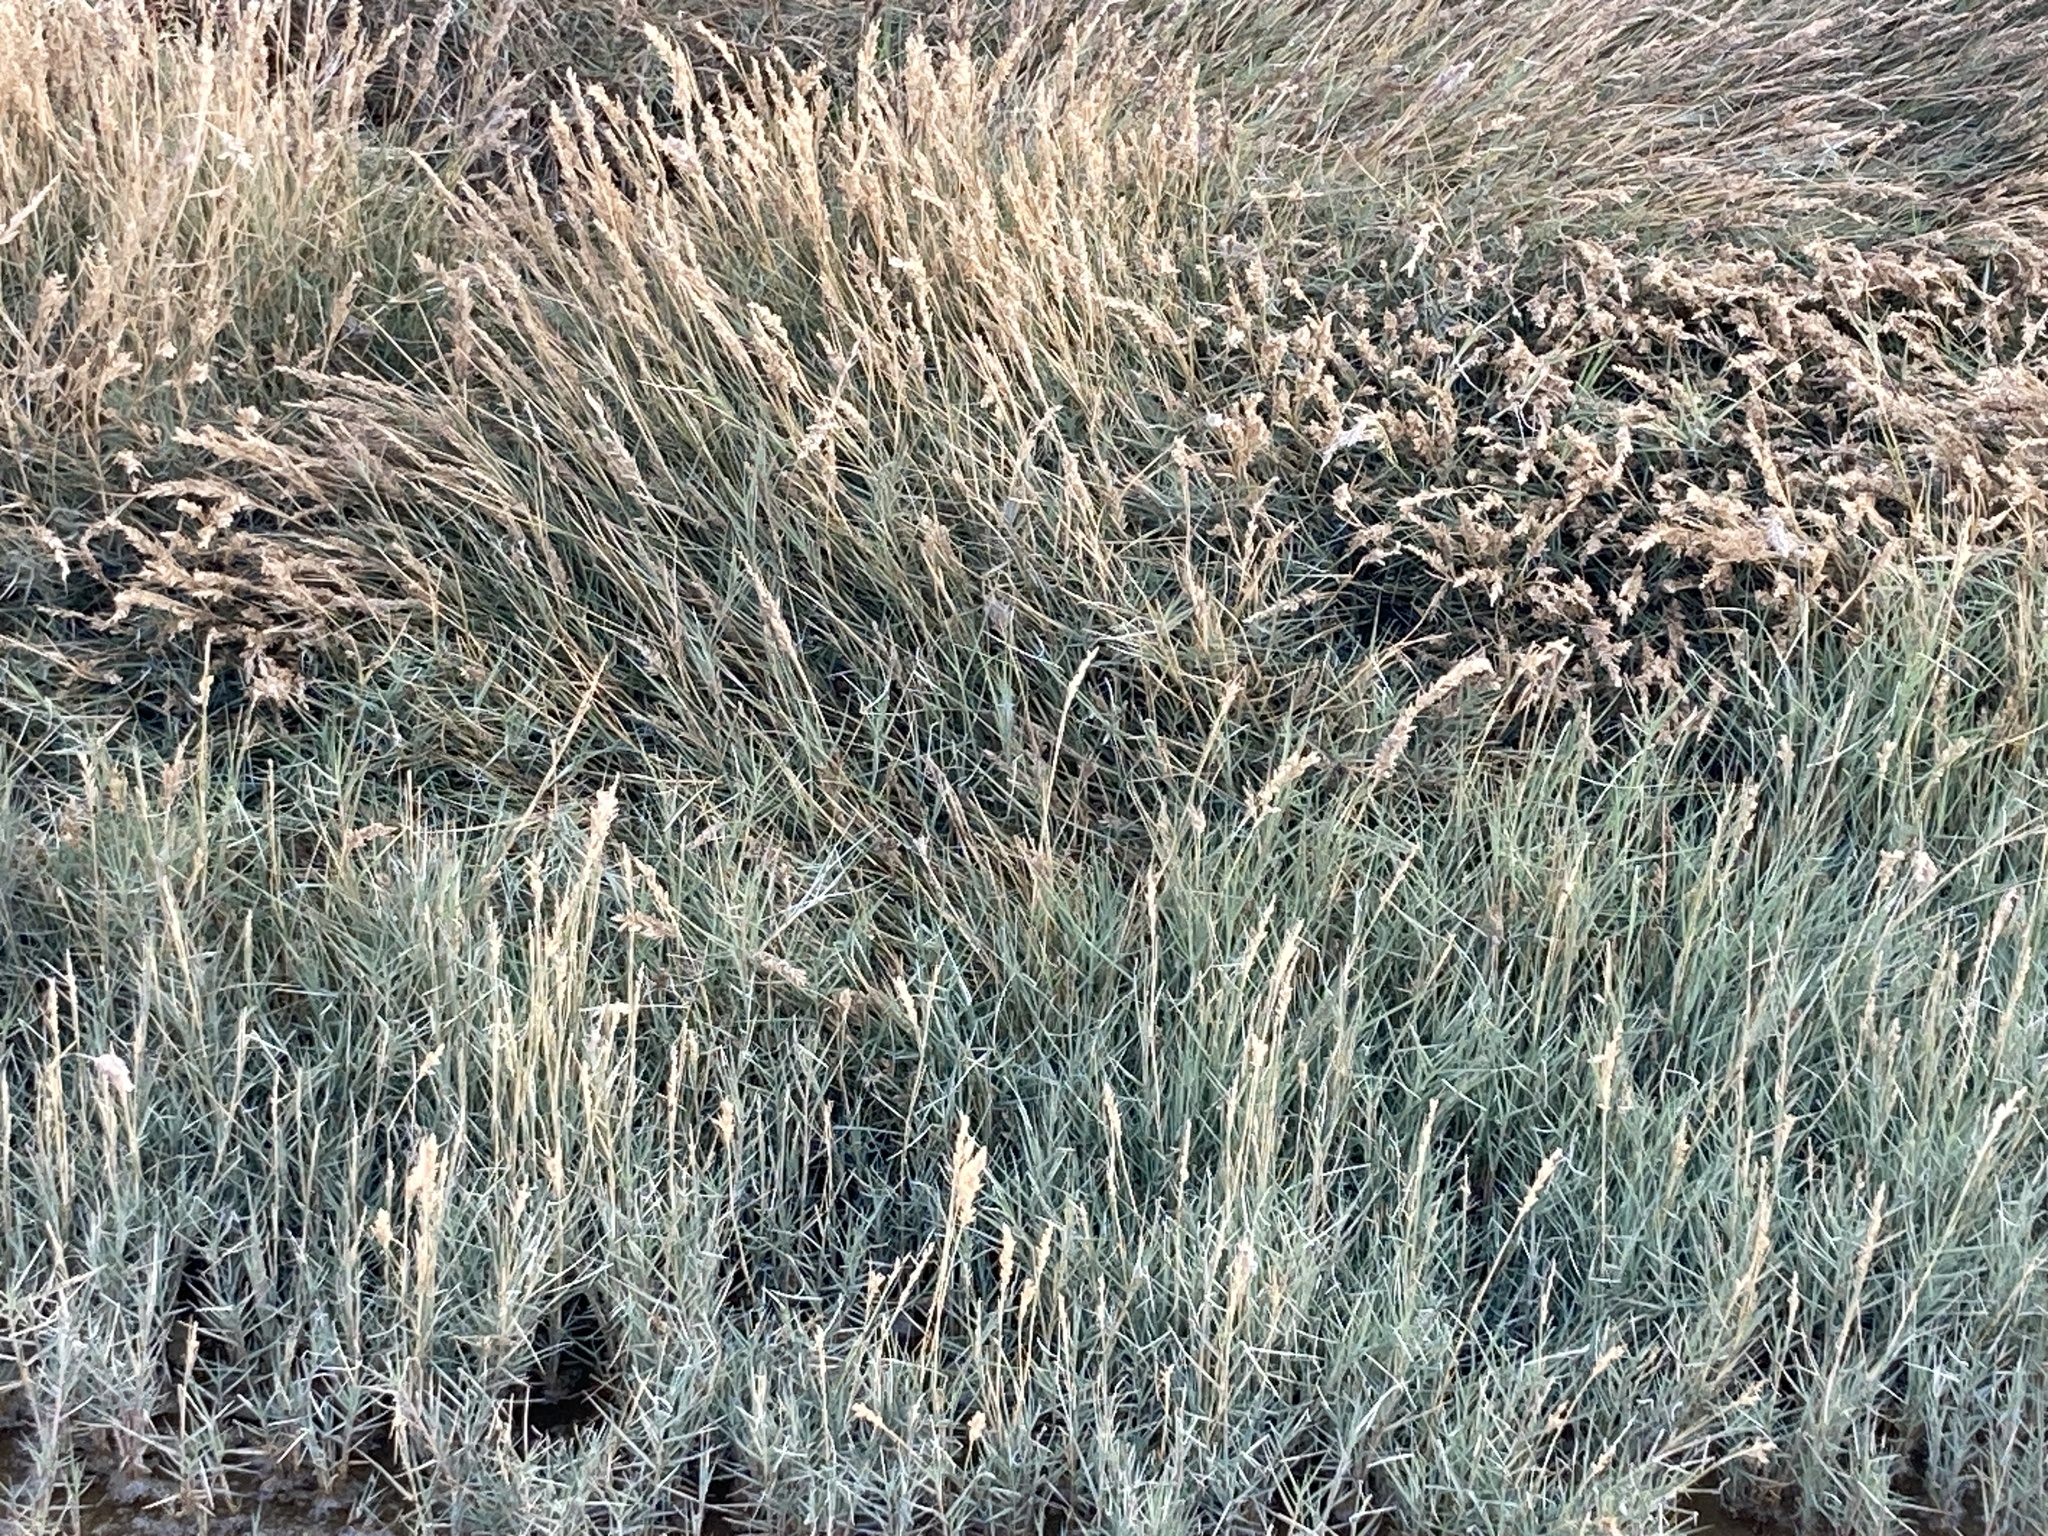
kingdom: Plantae
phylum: Tracheophyta
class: Liliopsida
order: Poales
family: Poaceae
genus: Distichlis
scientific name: Distichlis spicata
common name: Saltgrass
